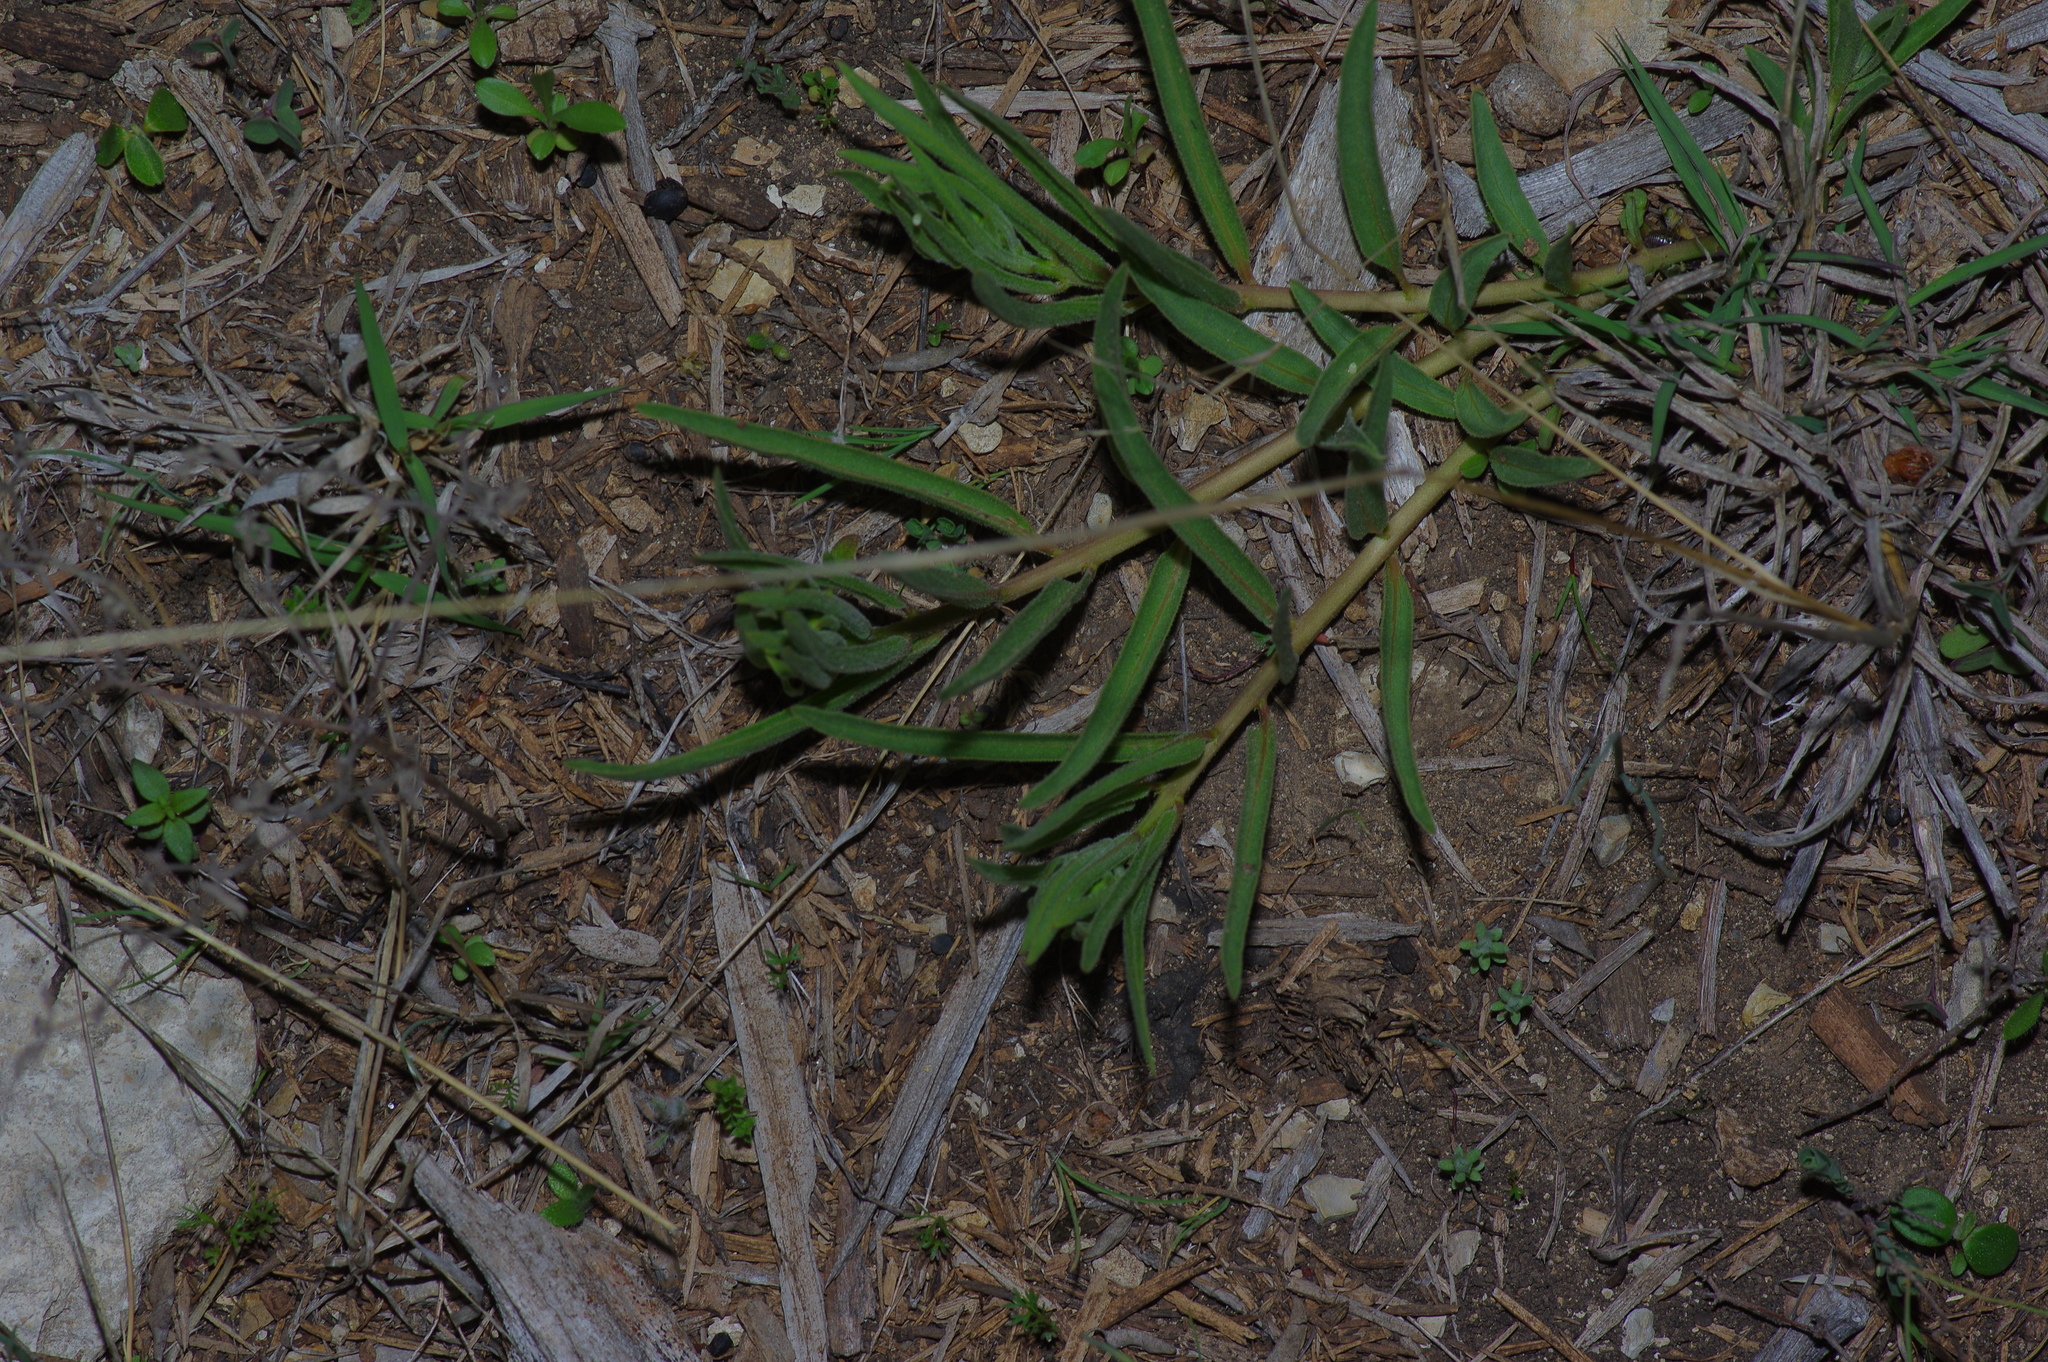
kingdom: Plantae
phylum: Tracheophyta
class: Magnoliopsida
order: Gentianales
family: Apocynaceae
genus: Asclepias
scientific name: Asclepias asperula
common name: Antelope horns
